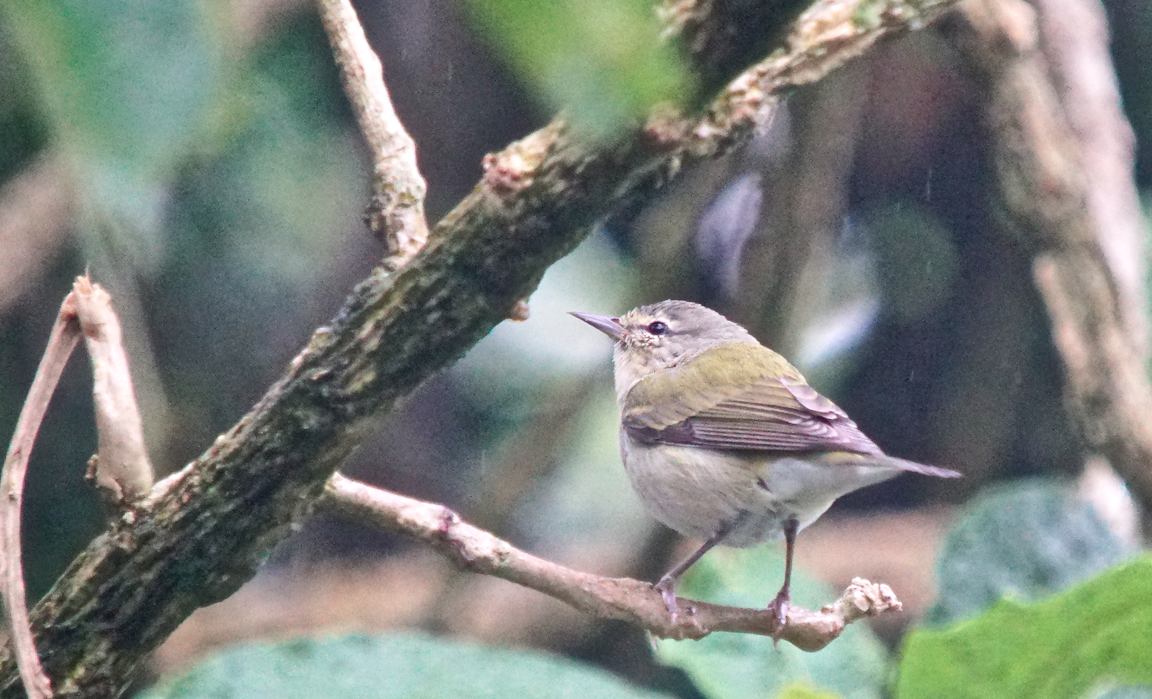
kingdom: Animalia
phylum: Chordata
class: Aves
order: Passeriformes
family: Parulidae
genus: Leiothlypis
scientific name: Leiothlypis peregrina
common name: Tennessee warbler
